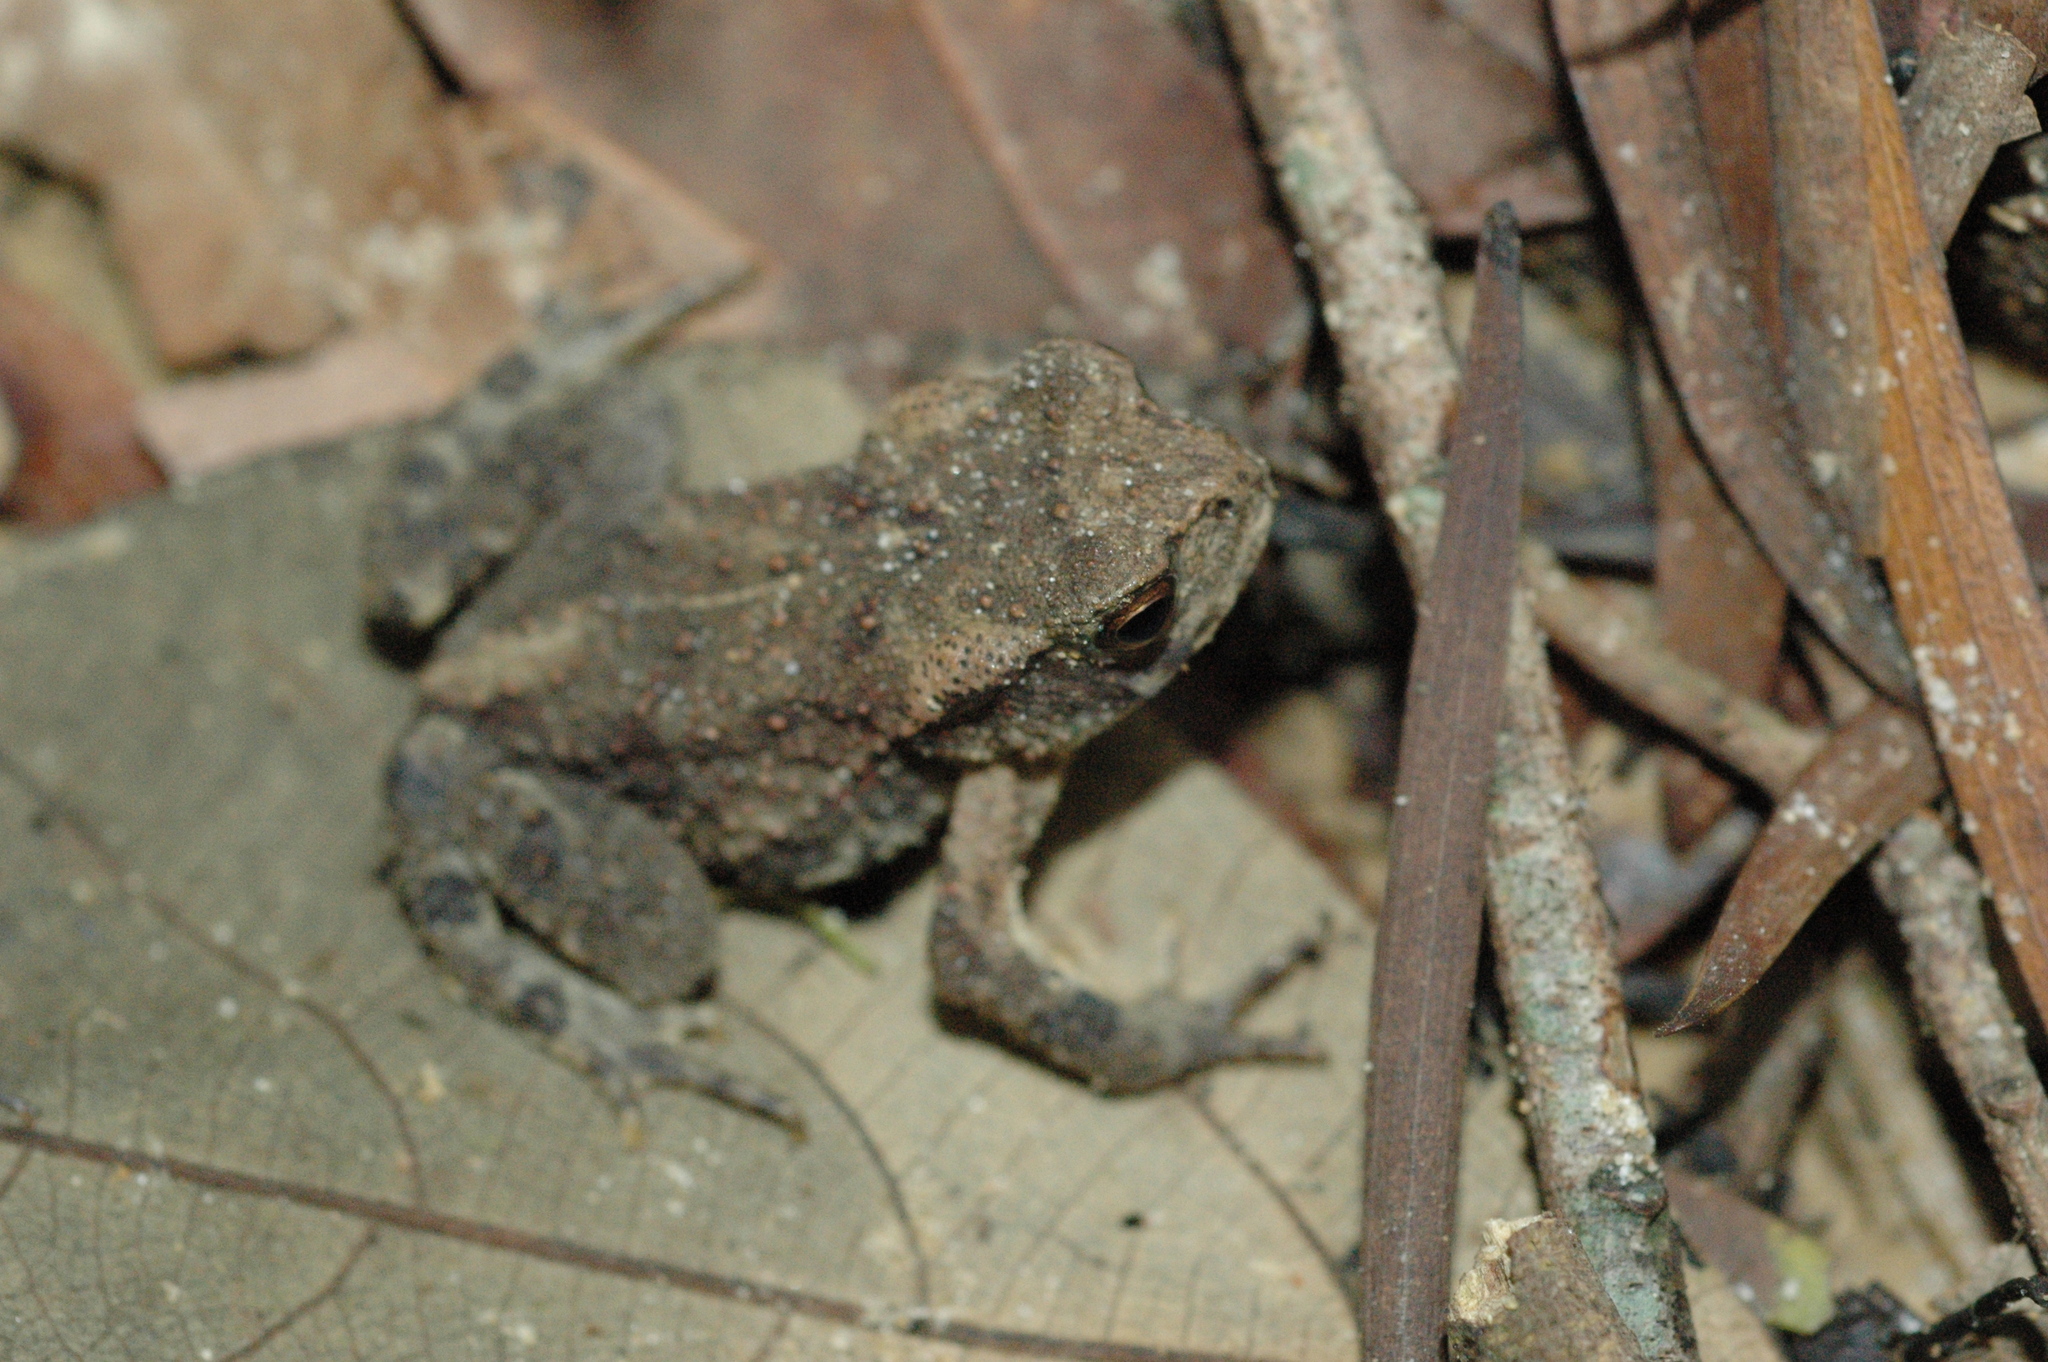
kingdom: Animalia
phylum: Chordata
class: Amphibia
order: Anura
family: Bufonidae
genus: Bufo
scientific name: Bufo bankorensis
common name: Bankor toad
